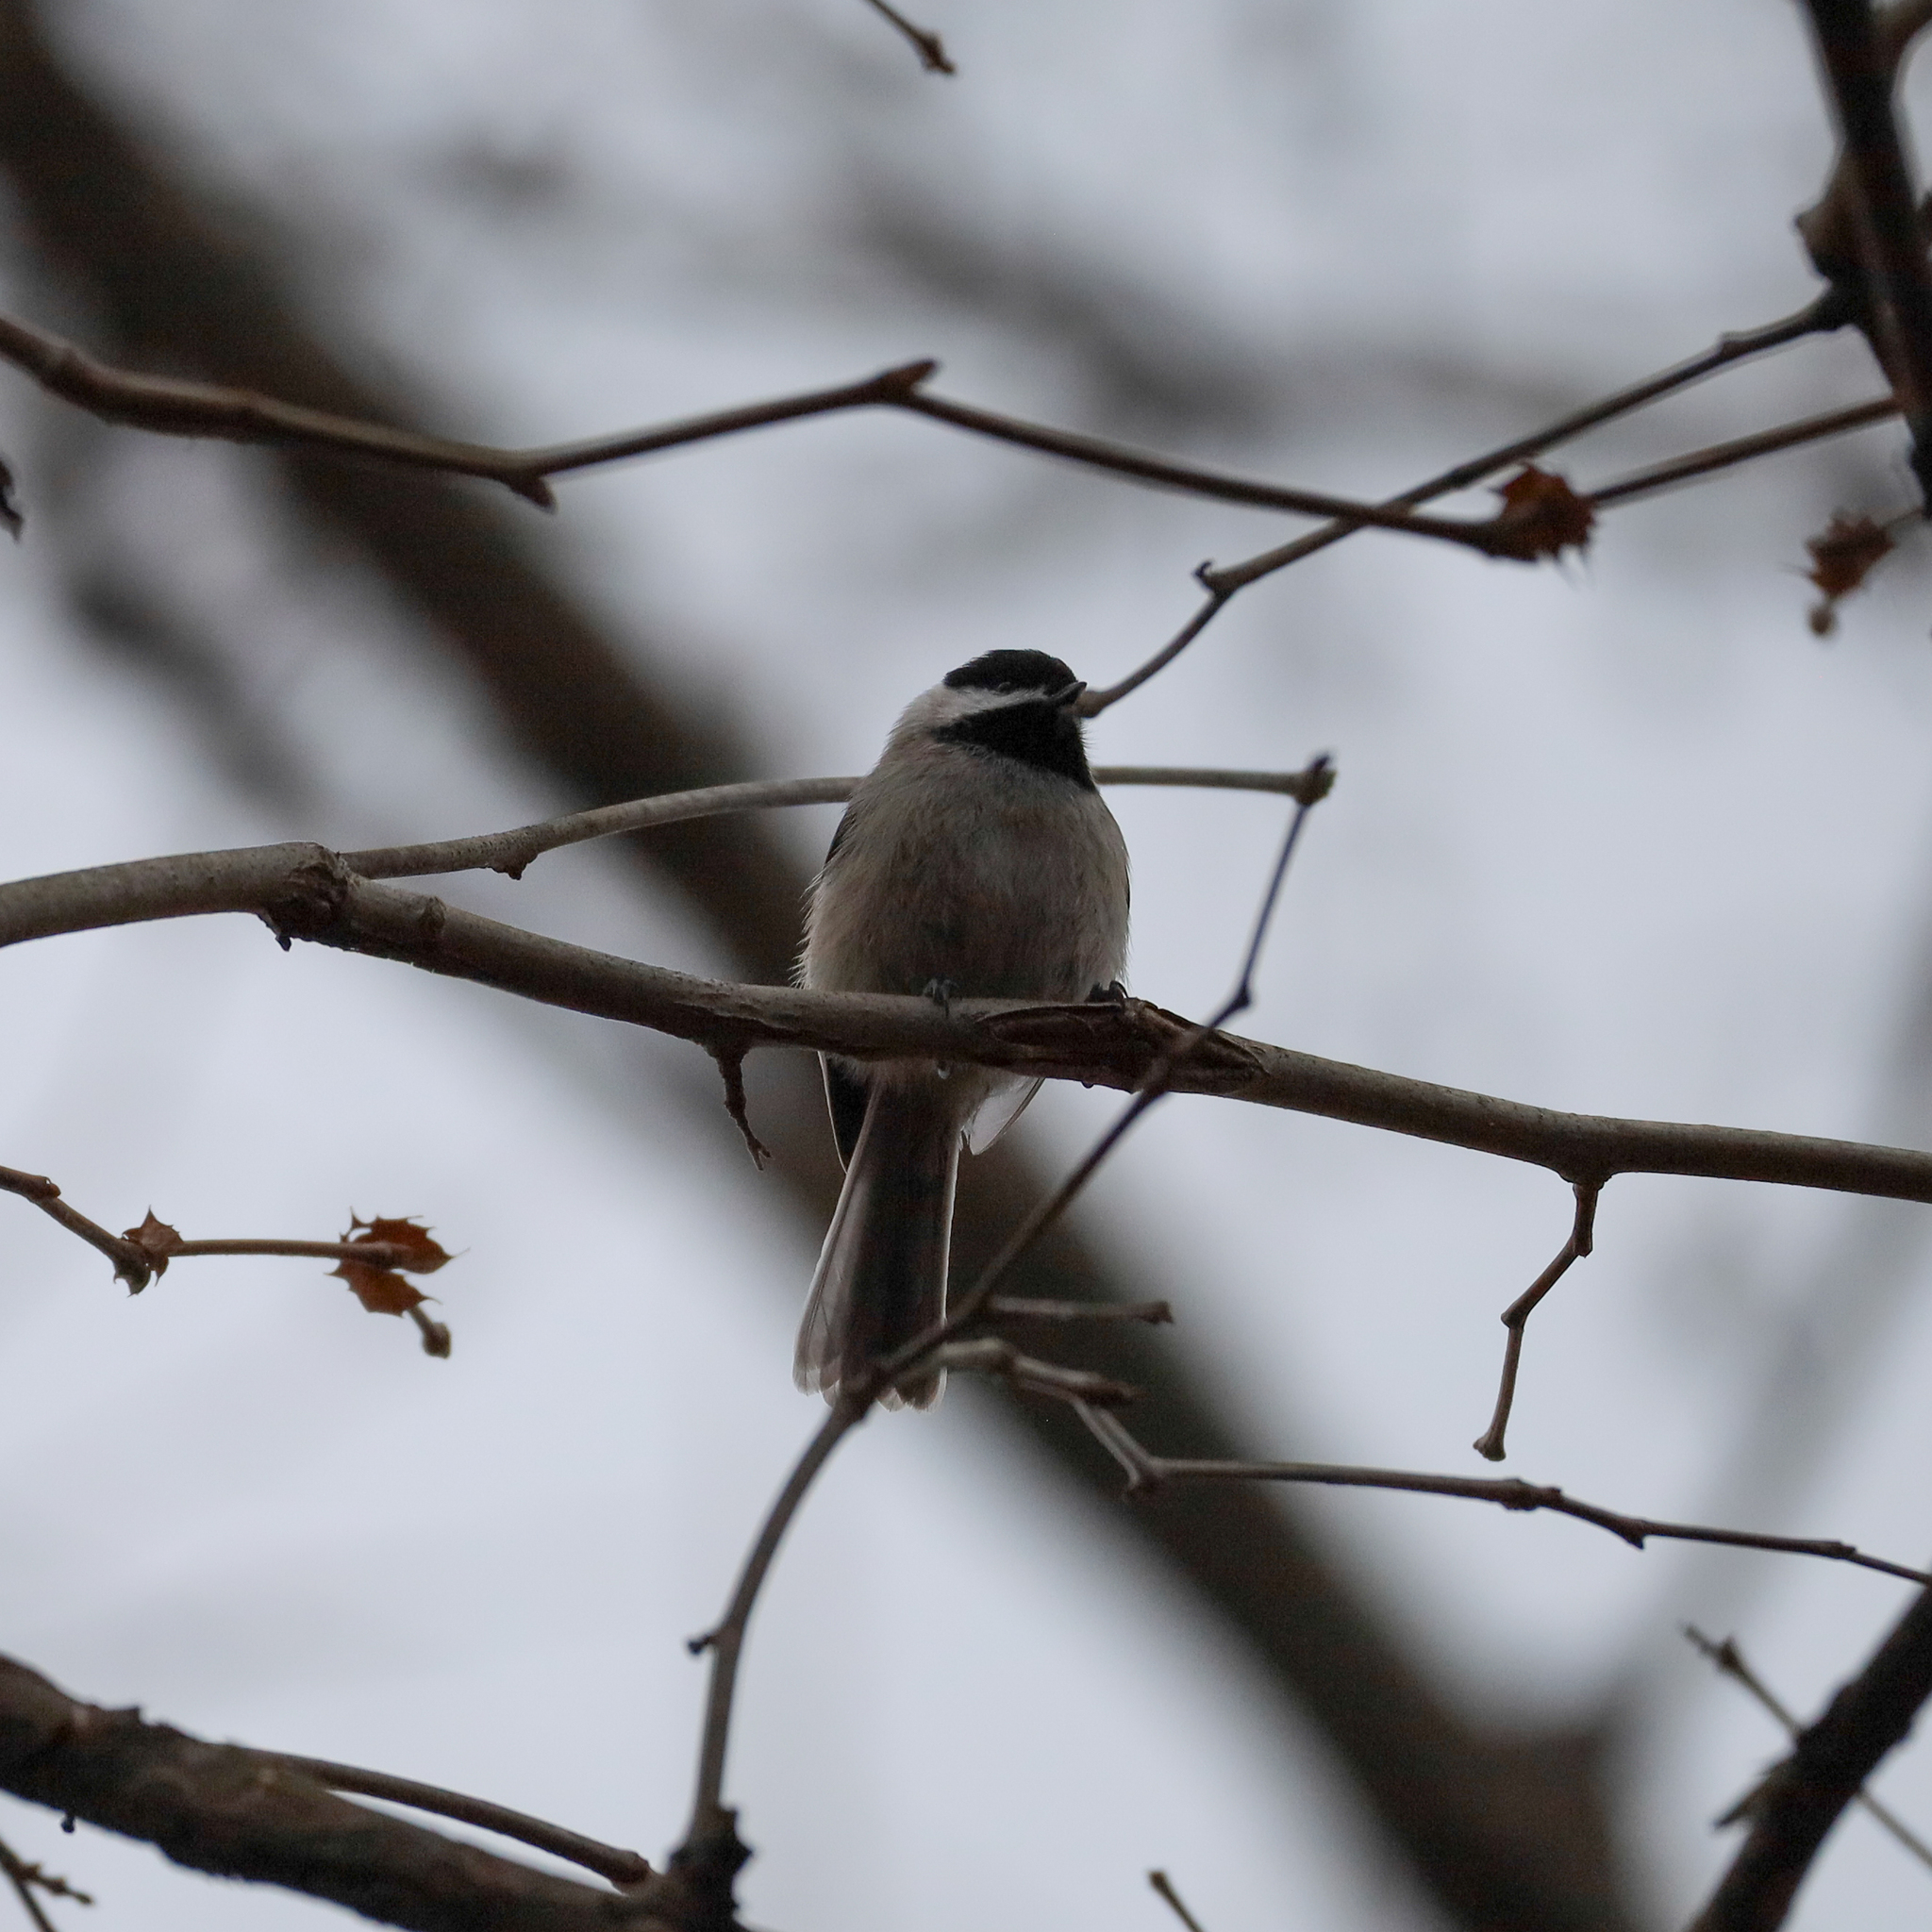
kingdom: Animalia
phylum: Chordata
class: Aves
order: Passeriformes
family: Paridae
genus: Poecile
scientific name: Poecile carolinensis
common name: Carolina chickadee
